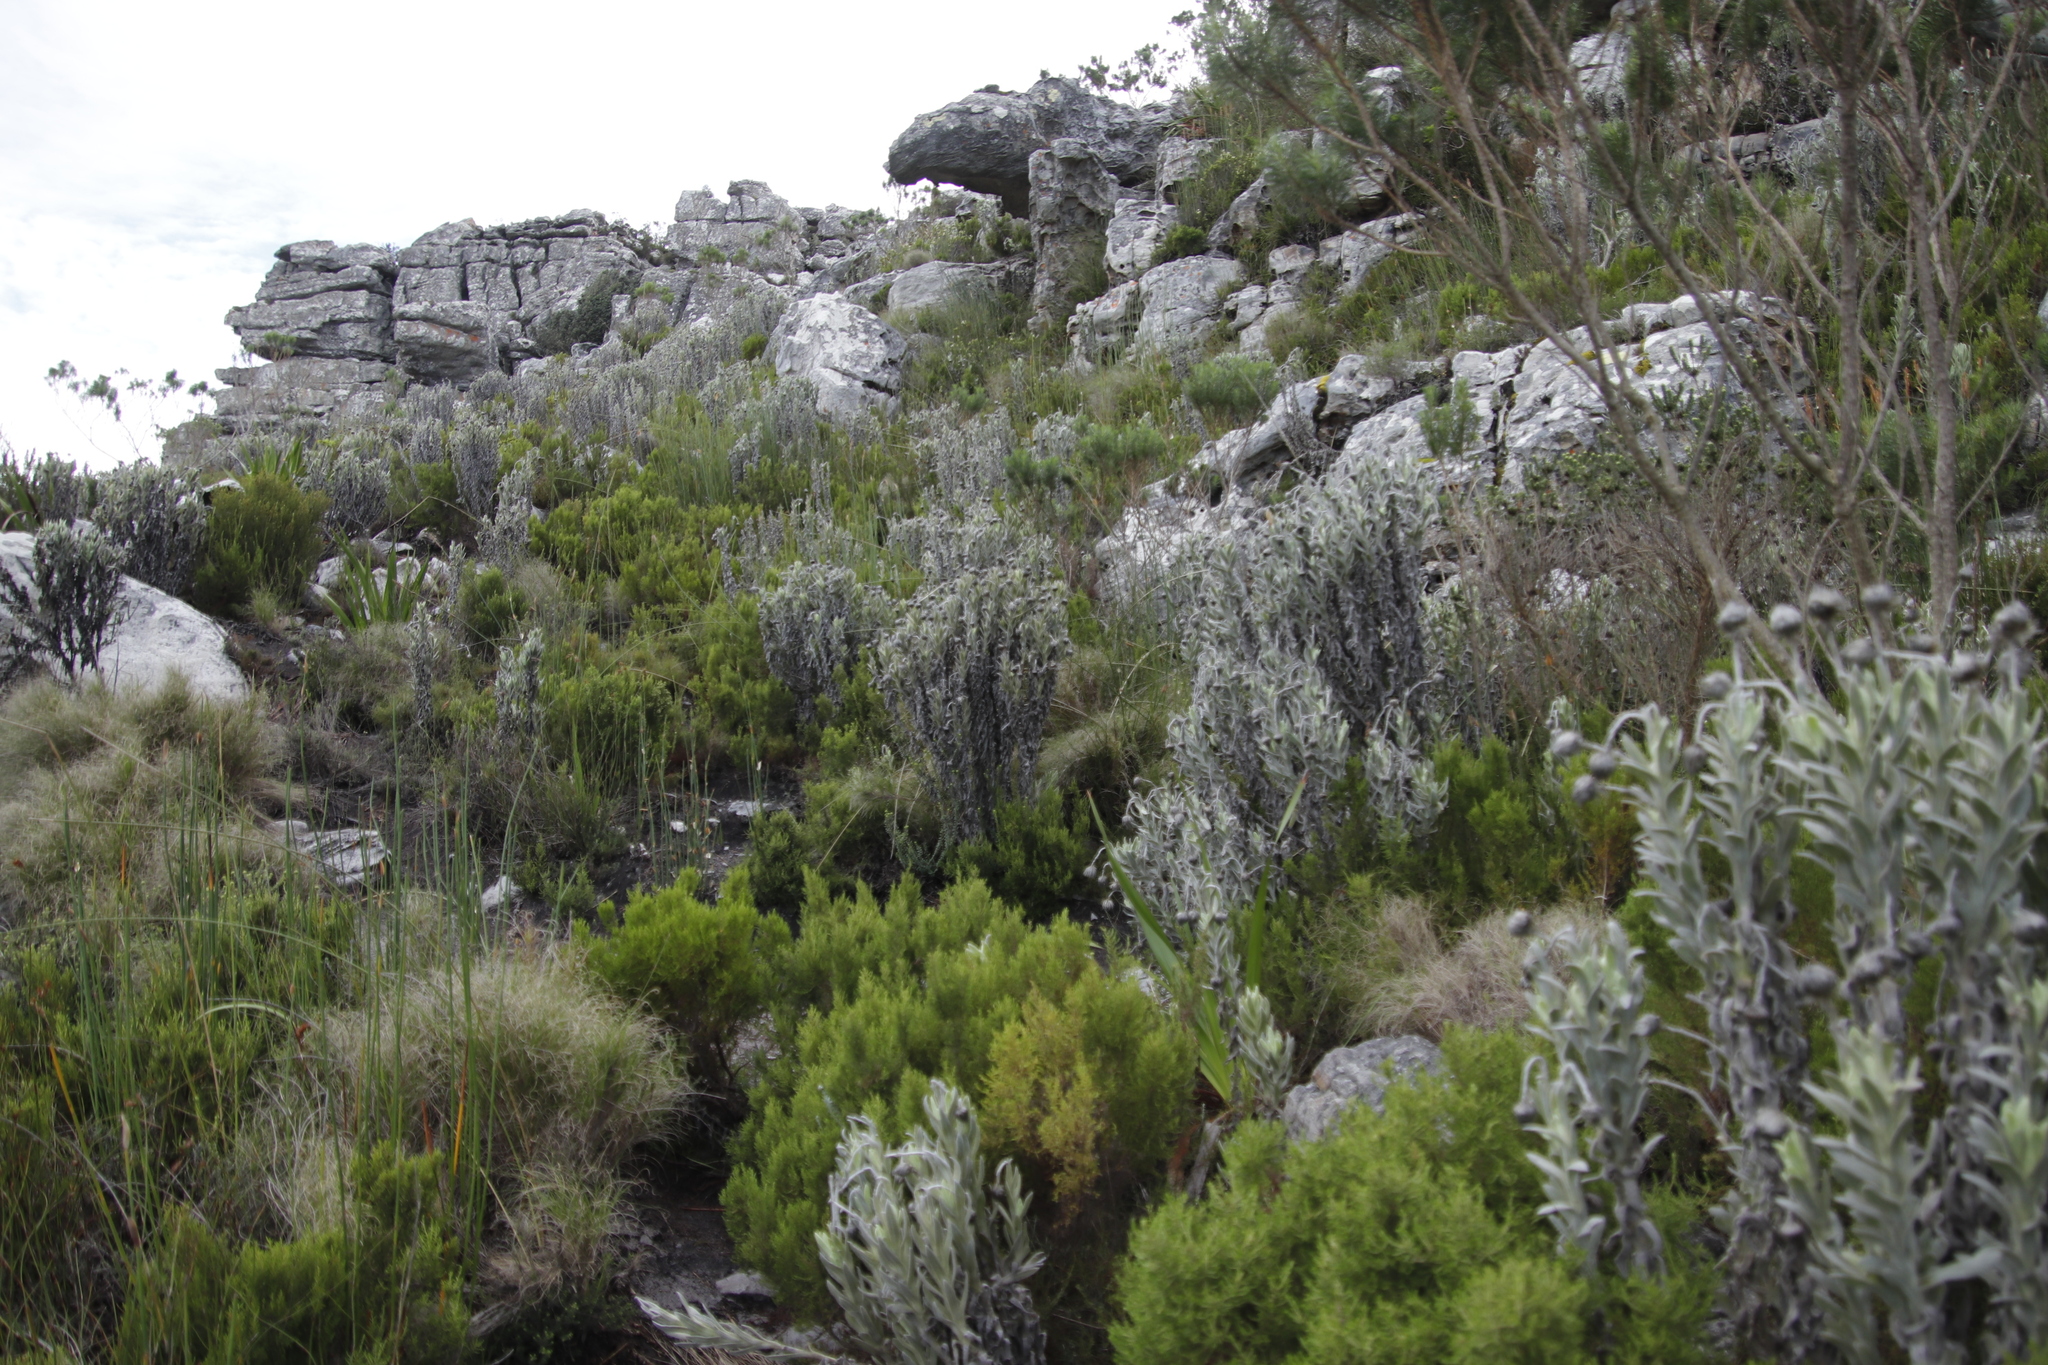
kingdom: Plantae
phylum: Tracheophyta
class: Magnoliopsida
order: Asterales
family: Asteraceae
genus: Syncarpha
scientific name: Syncarpha vestita
